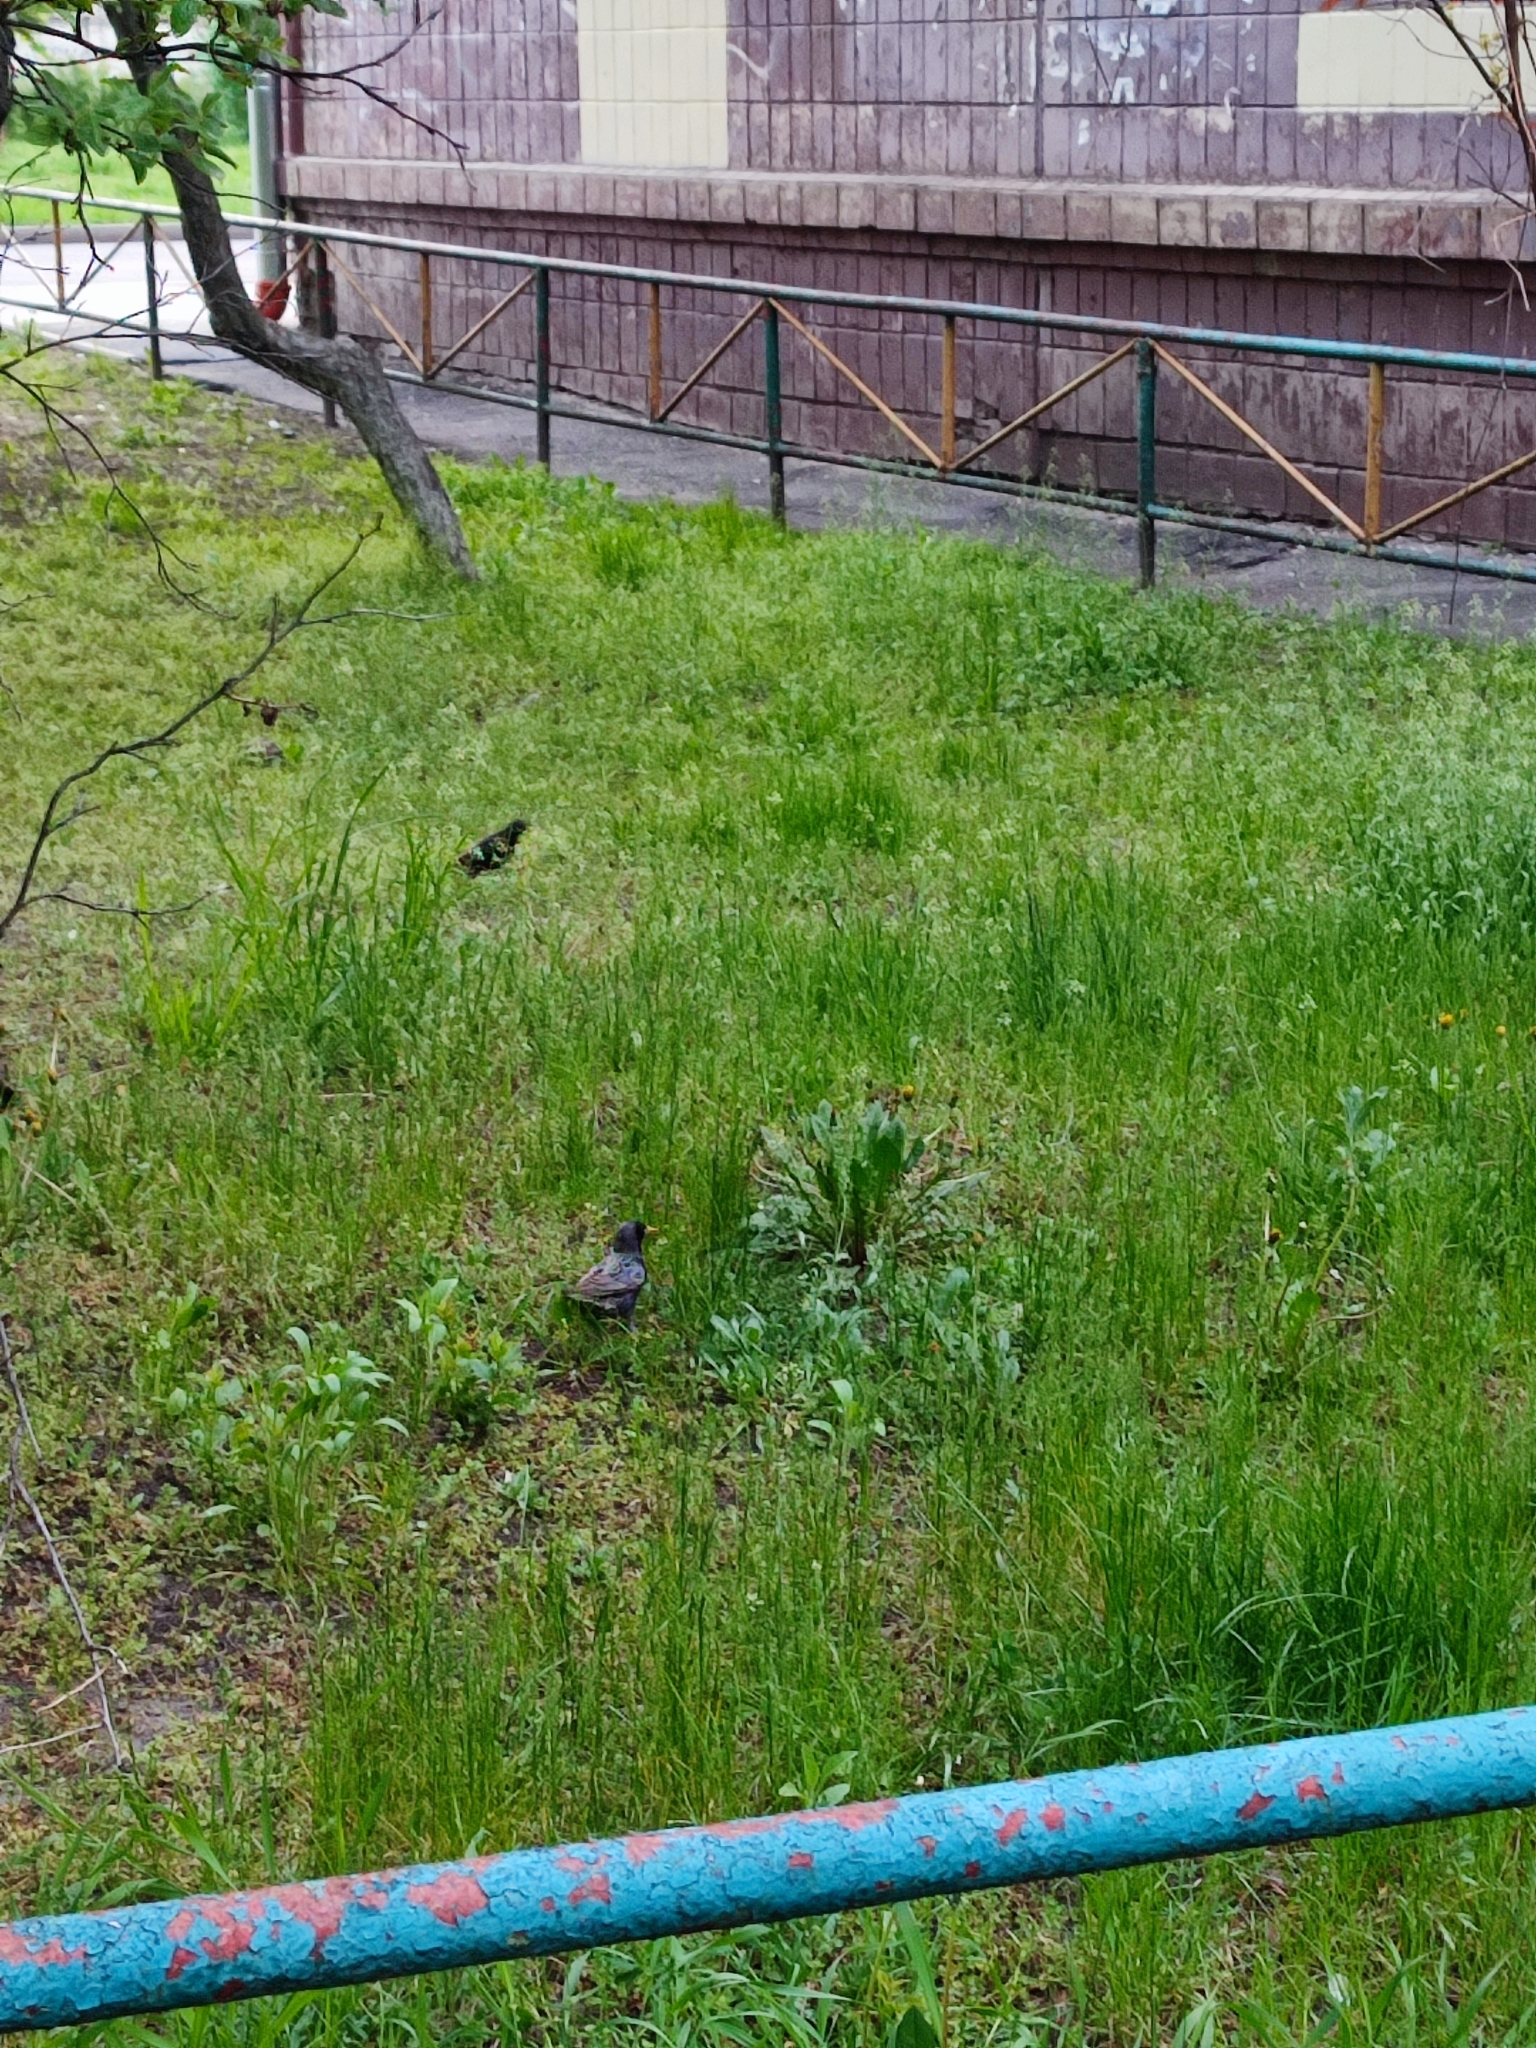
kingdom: Animalia
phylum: Chordata
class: Aves
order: Passeriformes
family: Sturnidae
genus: Sturnus
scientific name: Sturnus vulgaris
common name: Common starling
